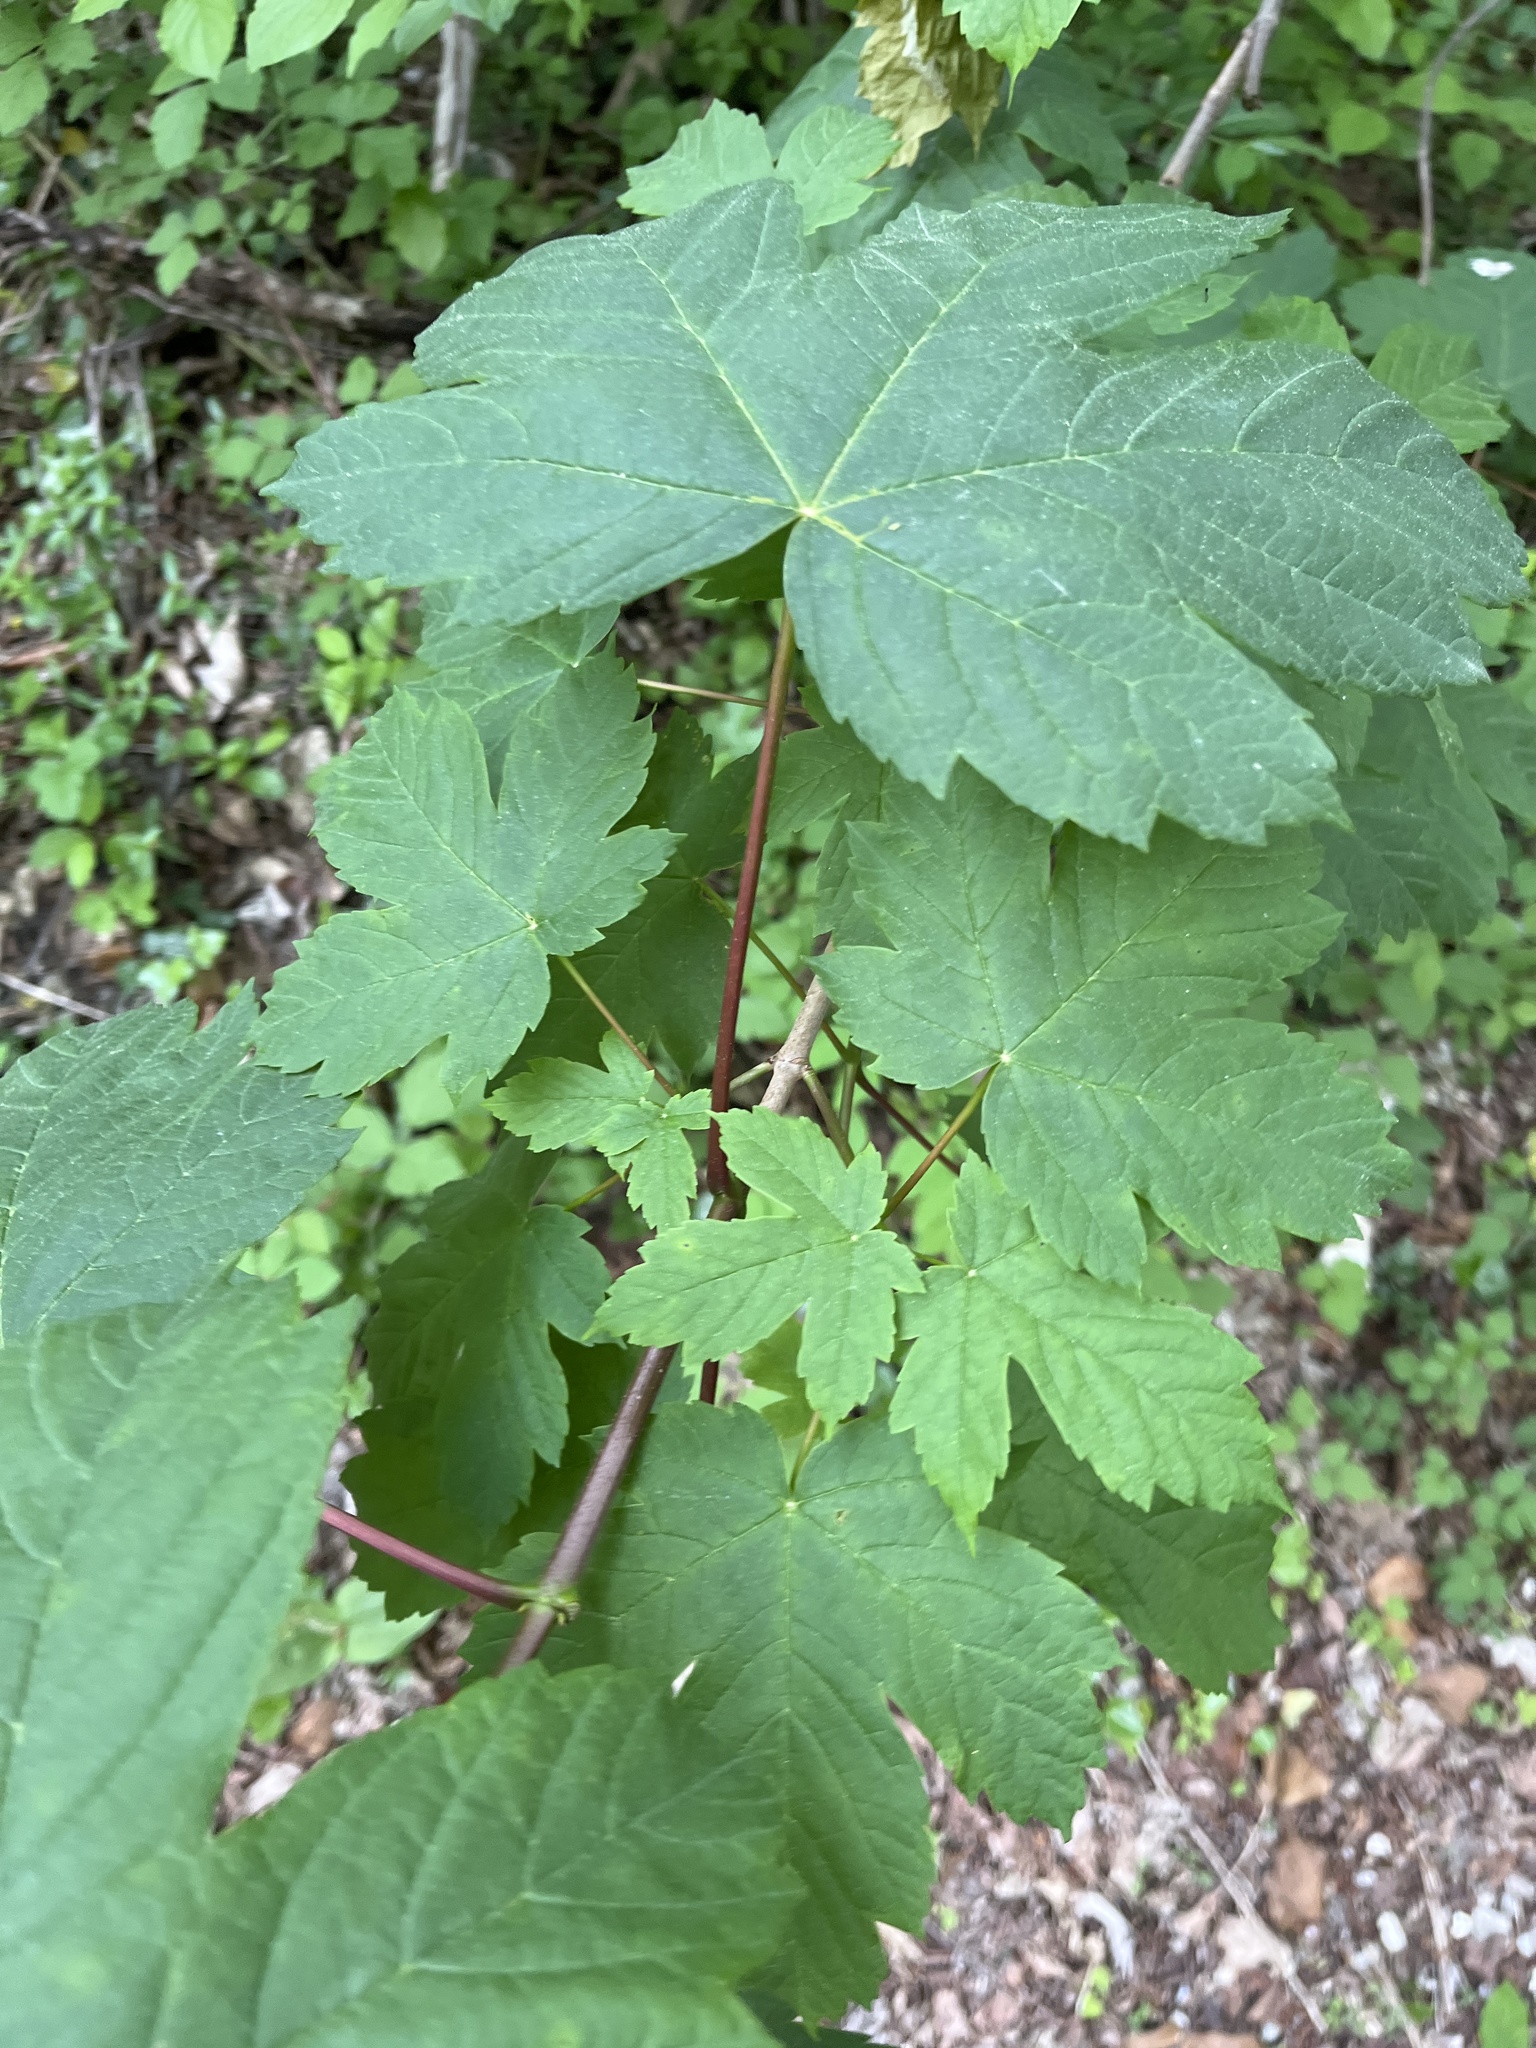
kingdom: Plantae
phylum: Tracheophyta
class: Magnoliopsida
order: Sapindales
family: Sapindaceae
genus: Acer
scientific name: Acer pseudoplatanus
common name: Sycamore
